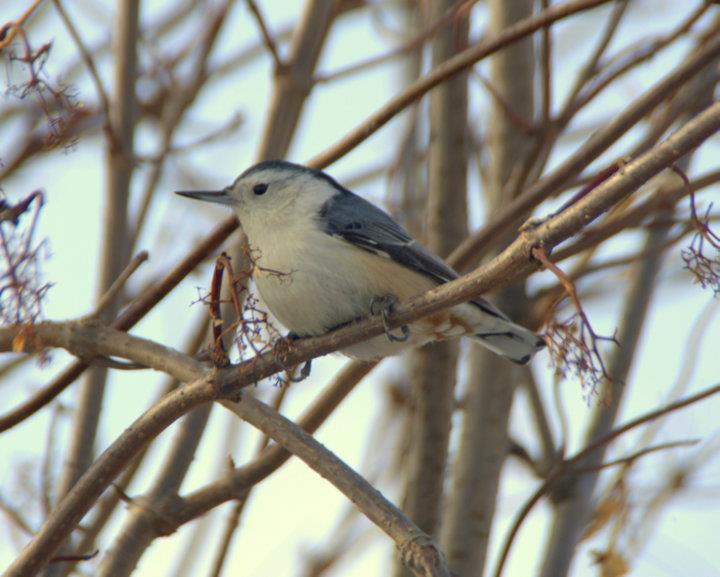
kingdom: Animalia
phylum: Chordata
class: Aves
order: Passeriformes
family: Sittidae
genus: Sitta
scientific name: Sitta carolinensis
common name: White-breasted nuthatch
